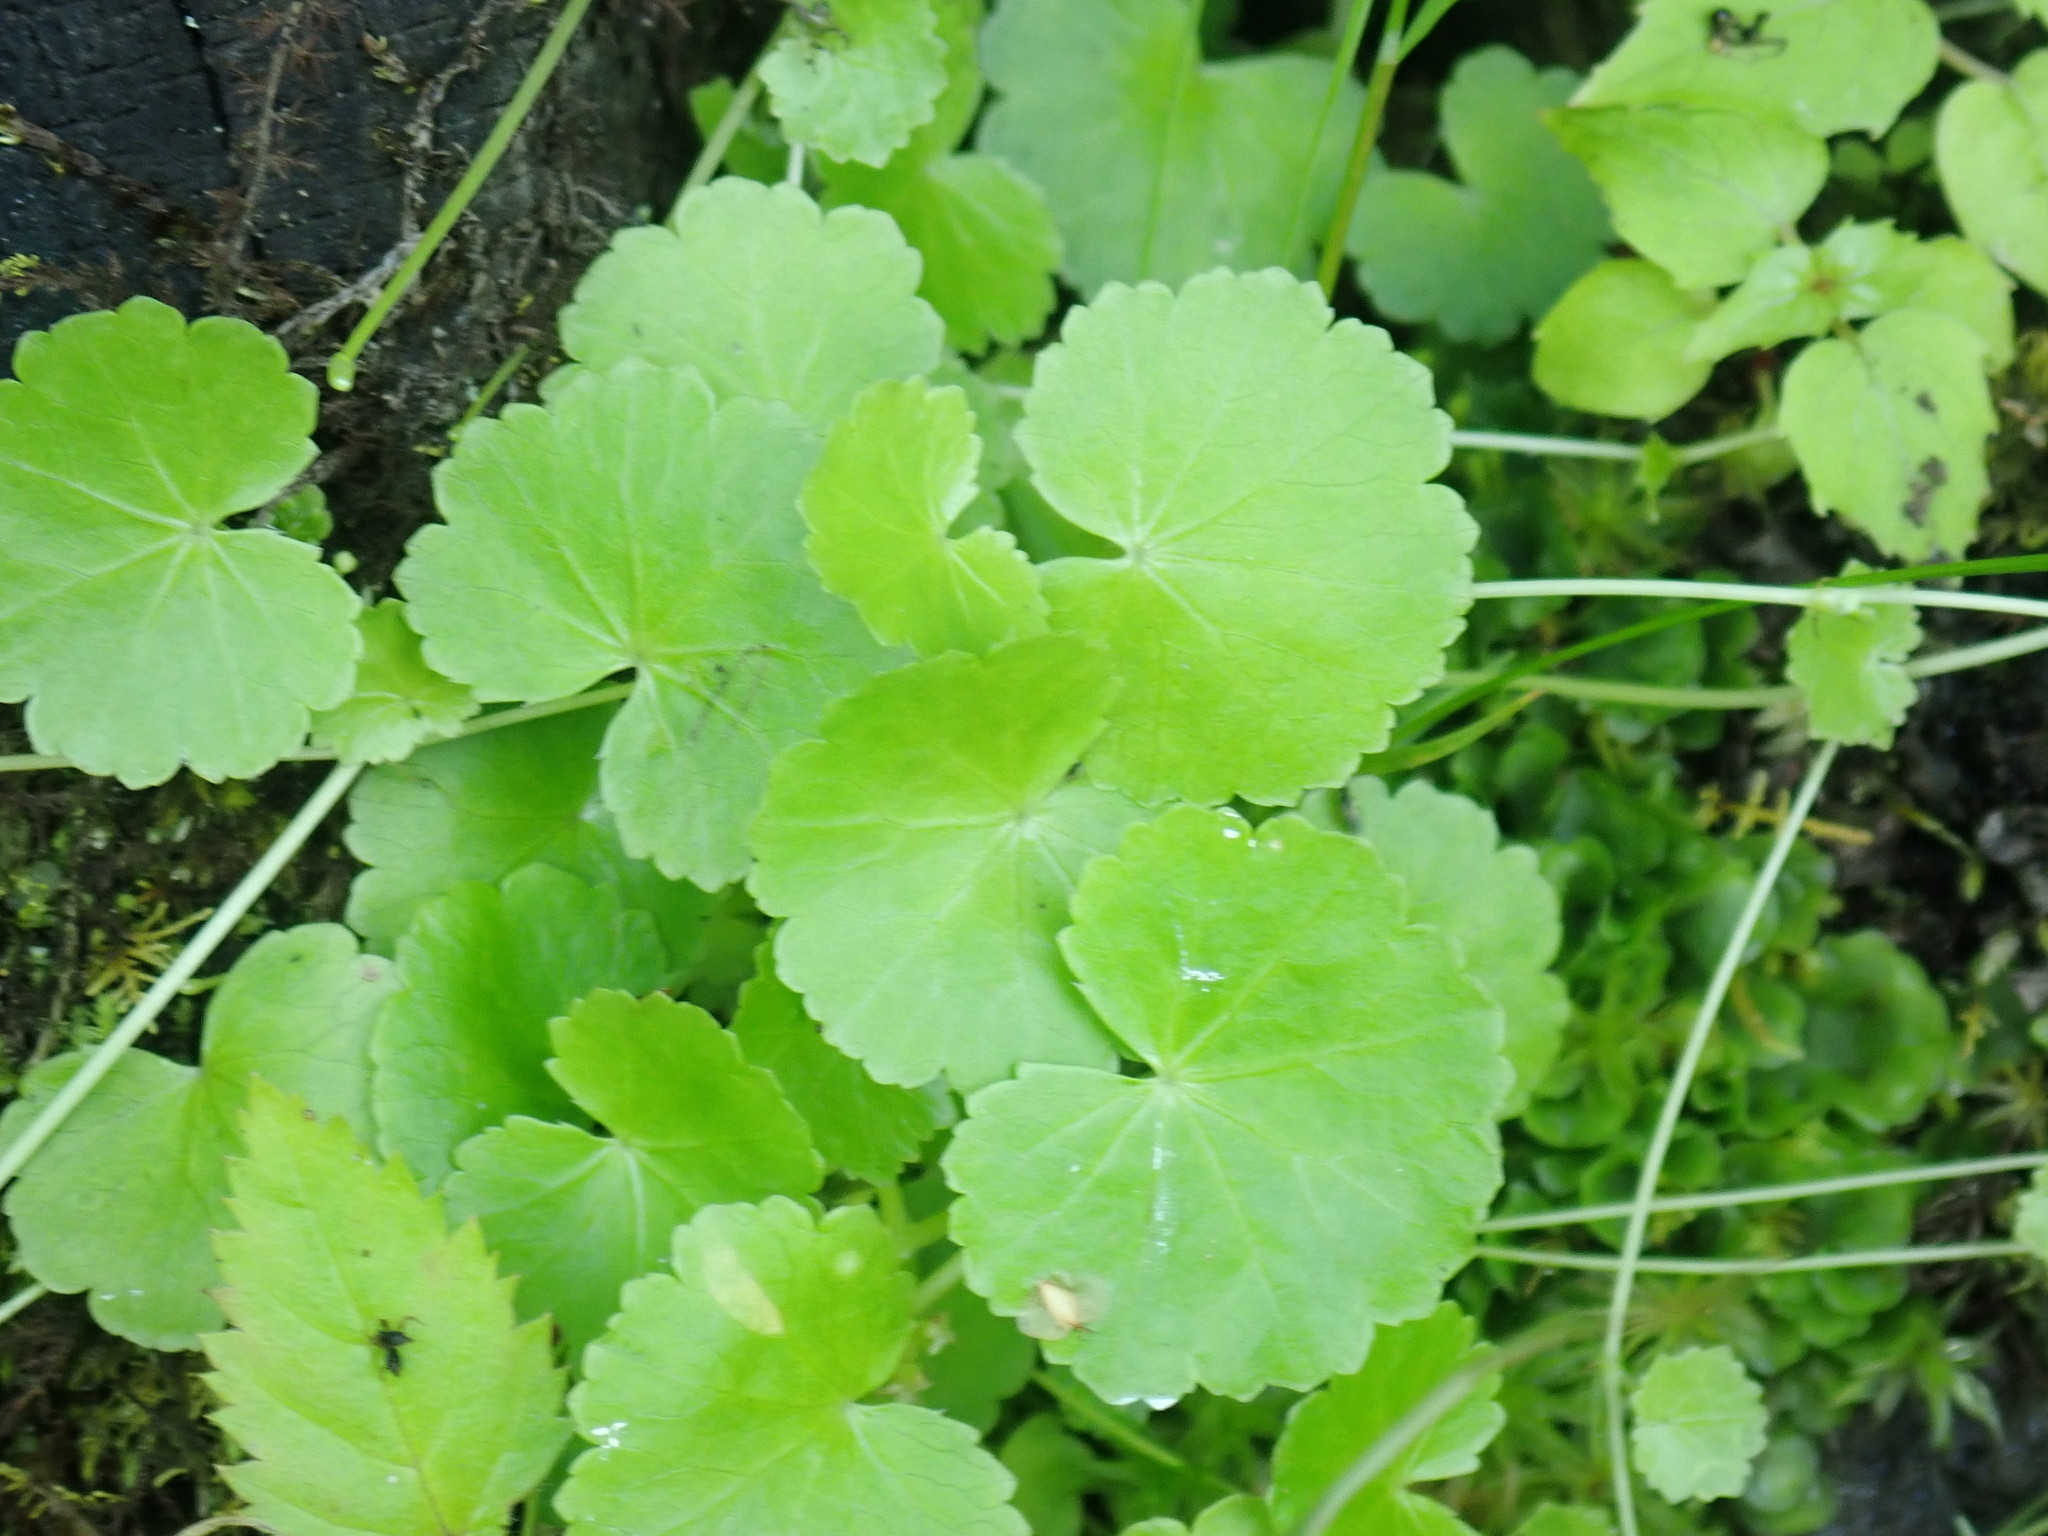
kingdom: Plantae
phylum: Tracheophyta
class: Magnoliopsida
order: Apiales
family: Araliaceae
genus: Hydrocotyle
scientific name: Hydrocotyle americana
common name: American water-pennywort
